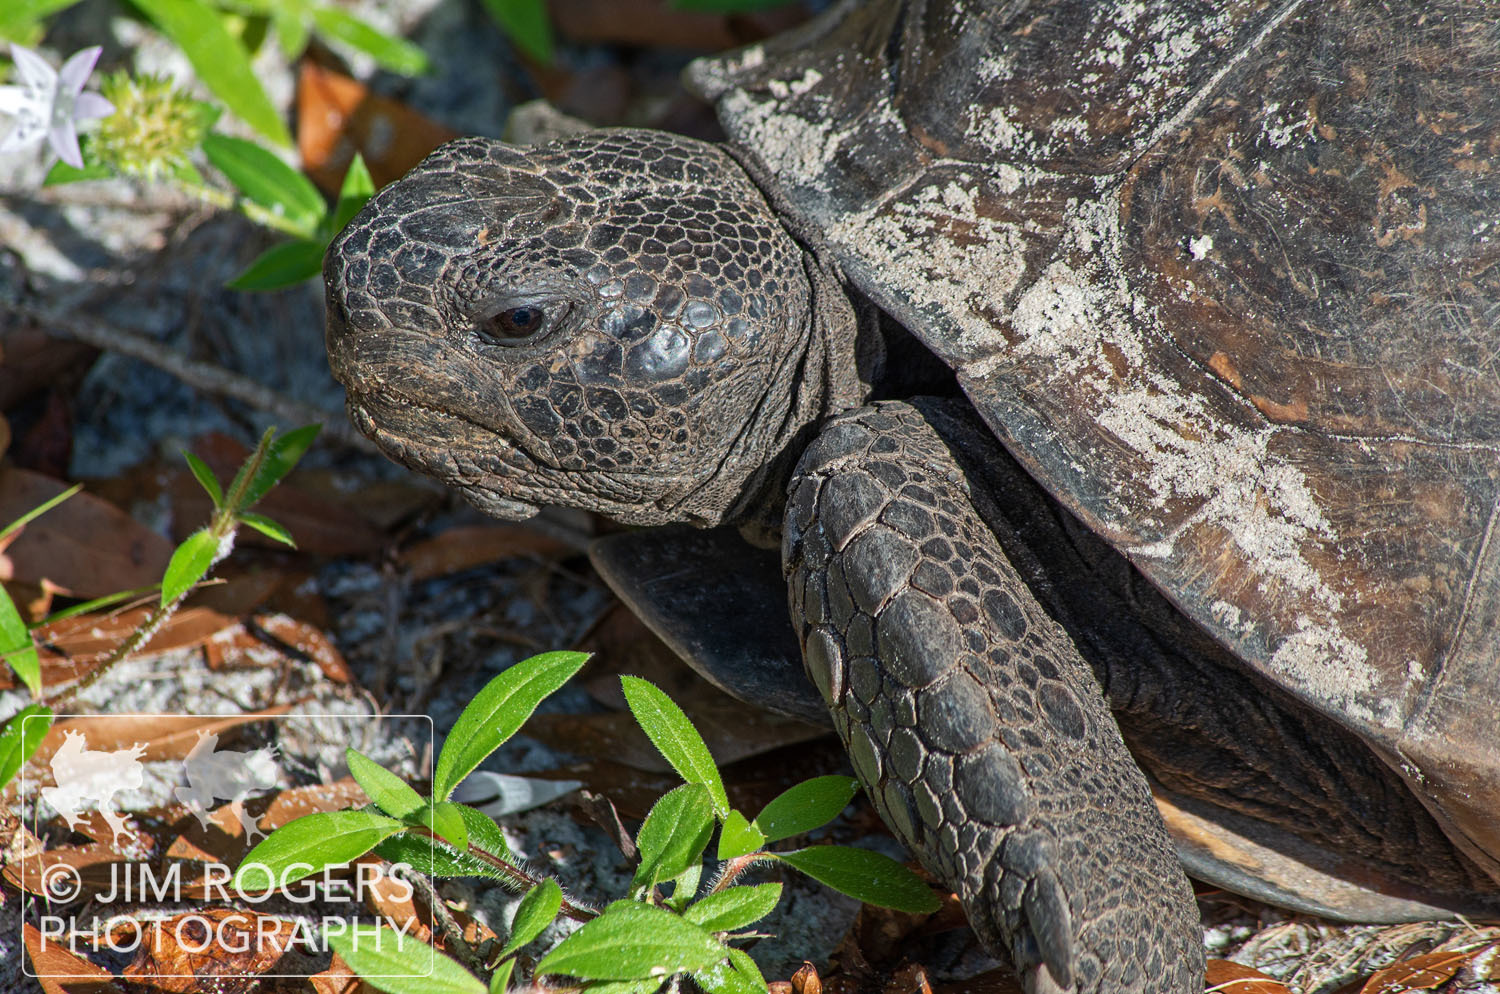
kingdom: Animalia
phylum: Chordata
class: Testudines
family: Testudinidae
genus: Gopherus
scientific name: Gopherus polyphemus
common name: Florida gopher tortoise
